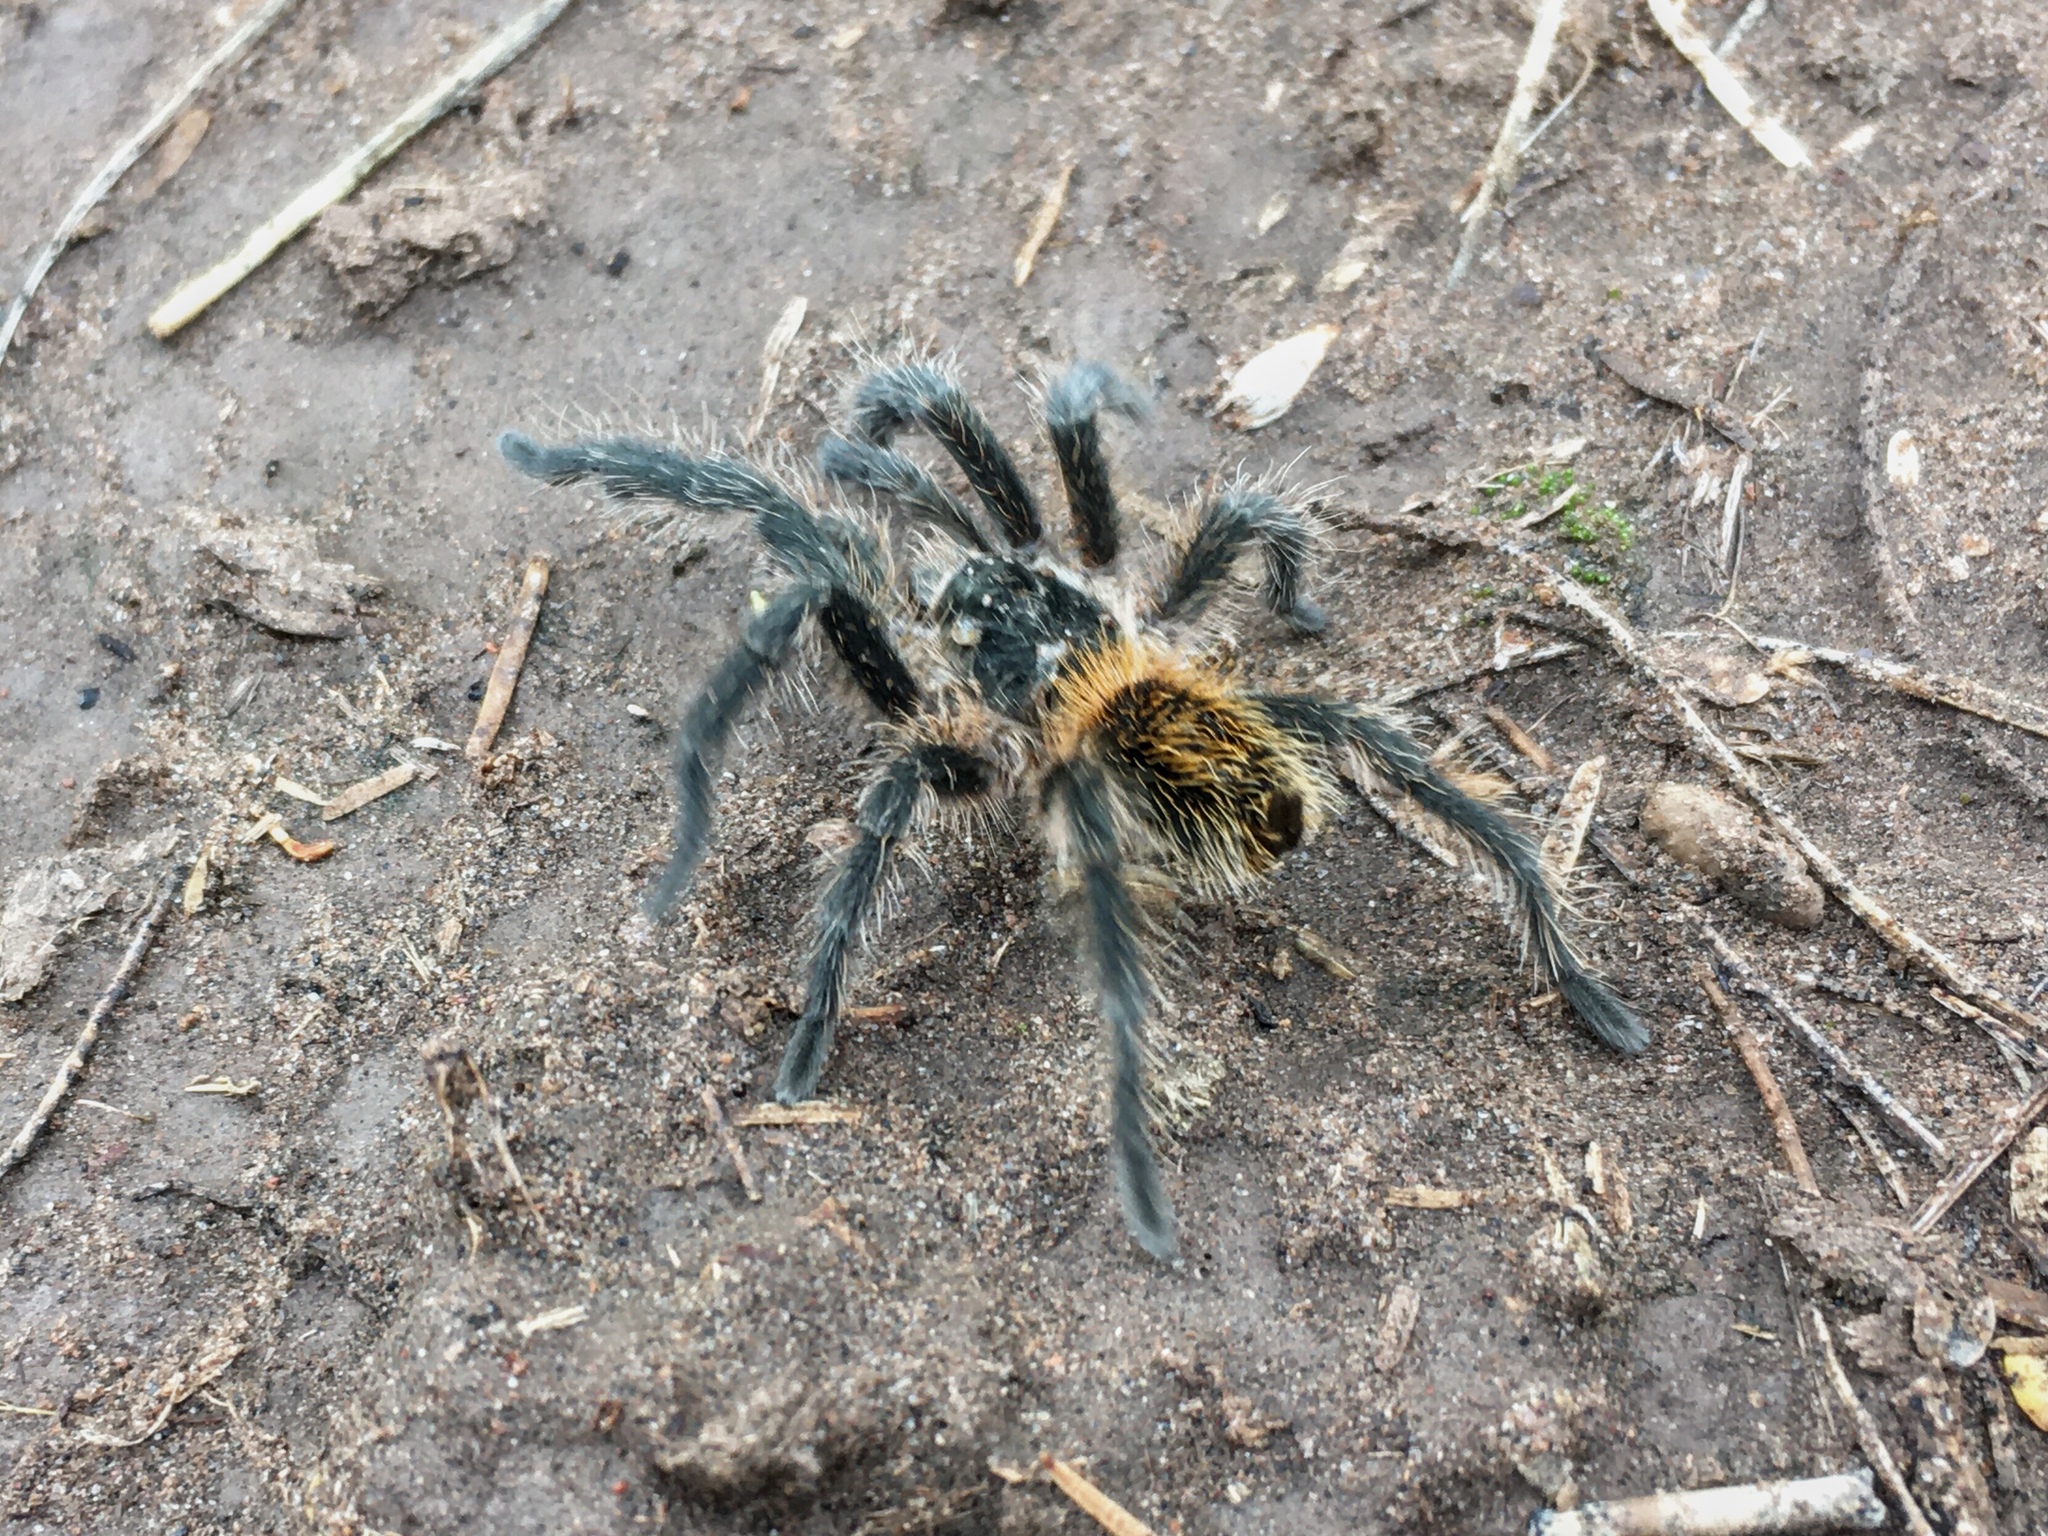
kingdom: Animalia
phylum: Arthropoda
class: Arachnida
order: Araneae
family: Theraphosidae
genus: Plesiopelma
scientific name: Plesiopelma longisternale
